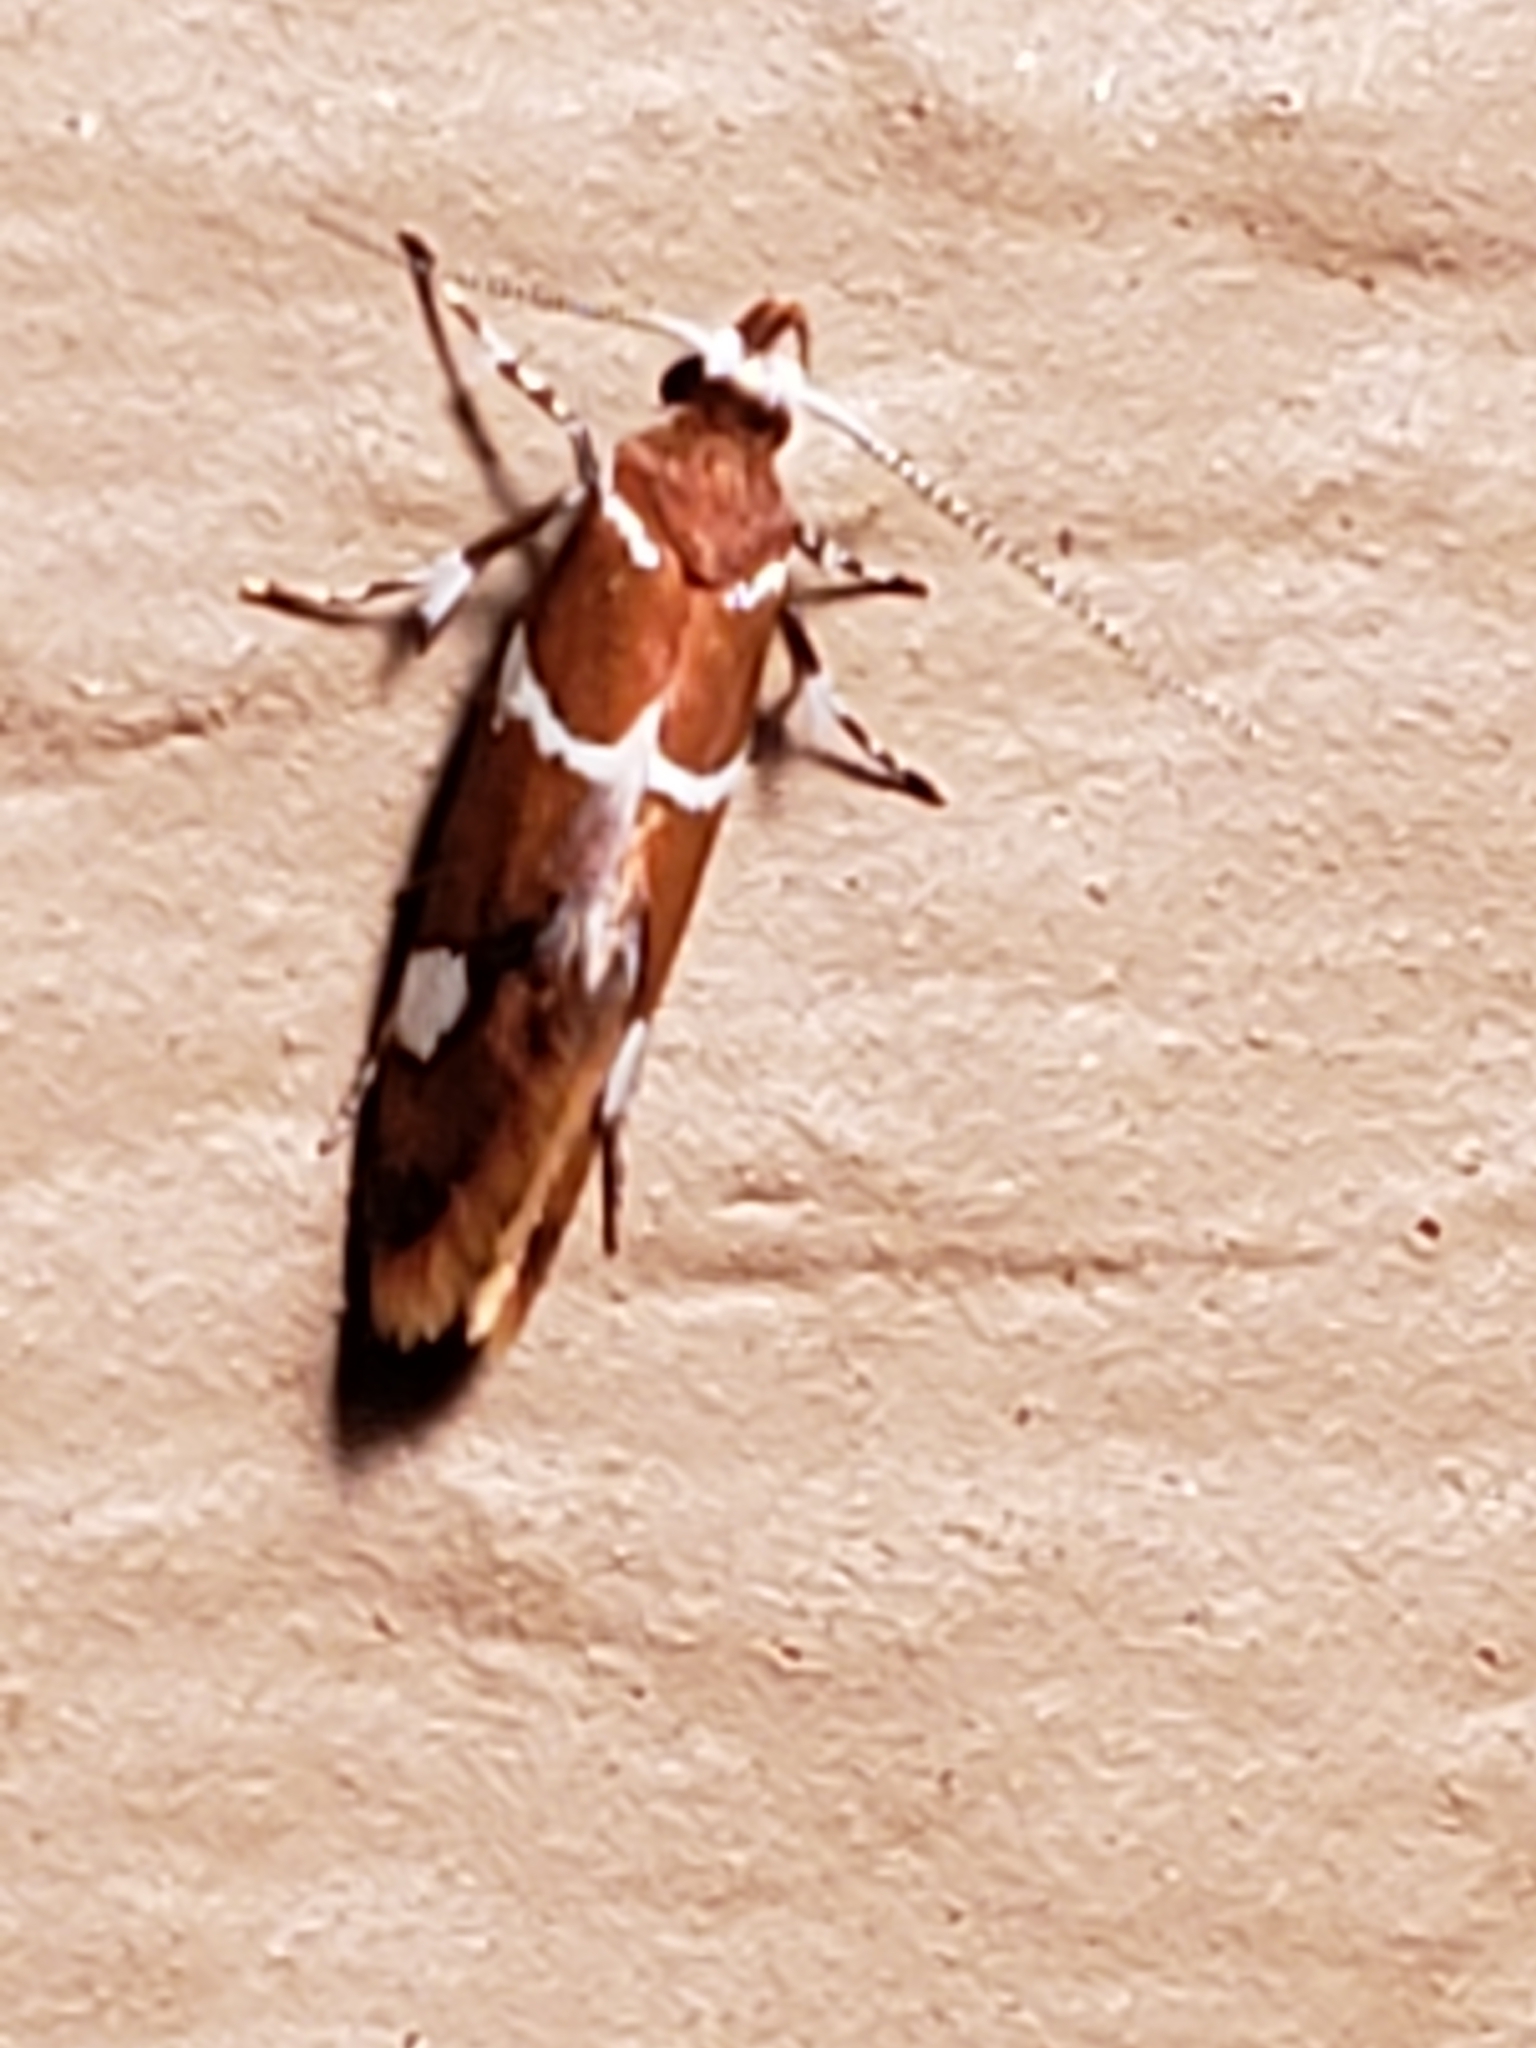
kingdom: Animalia
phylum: Arthropoda
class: Insecta
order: Lepidoptera
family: Oecophoridae
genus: Promalactis
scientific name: Promalactis suzukiella
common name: Moth
